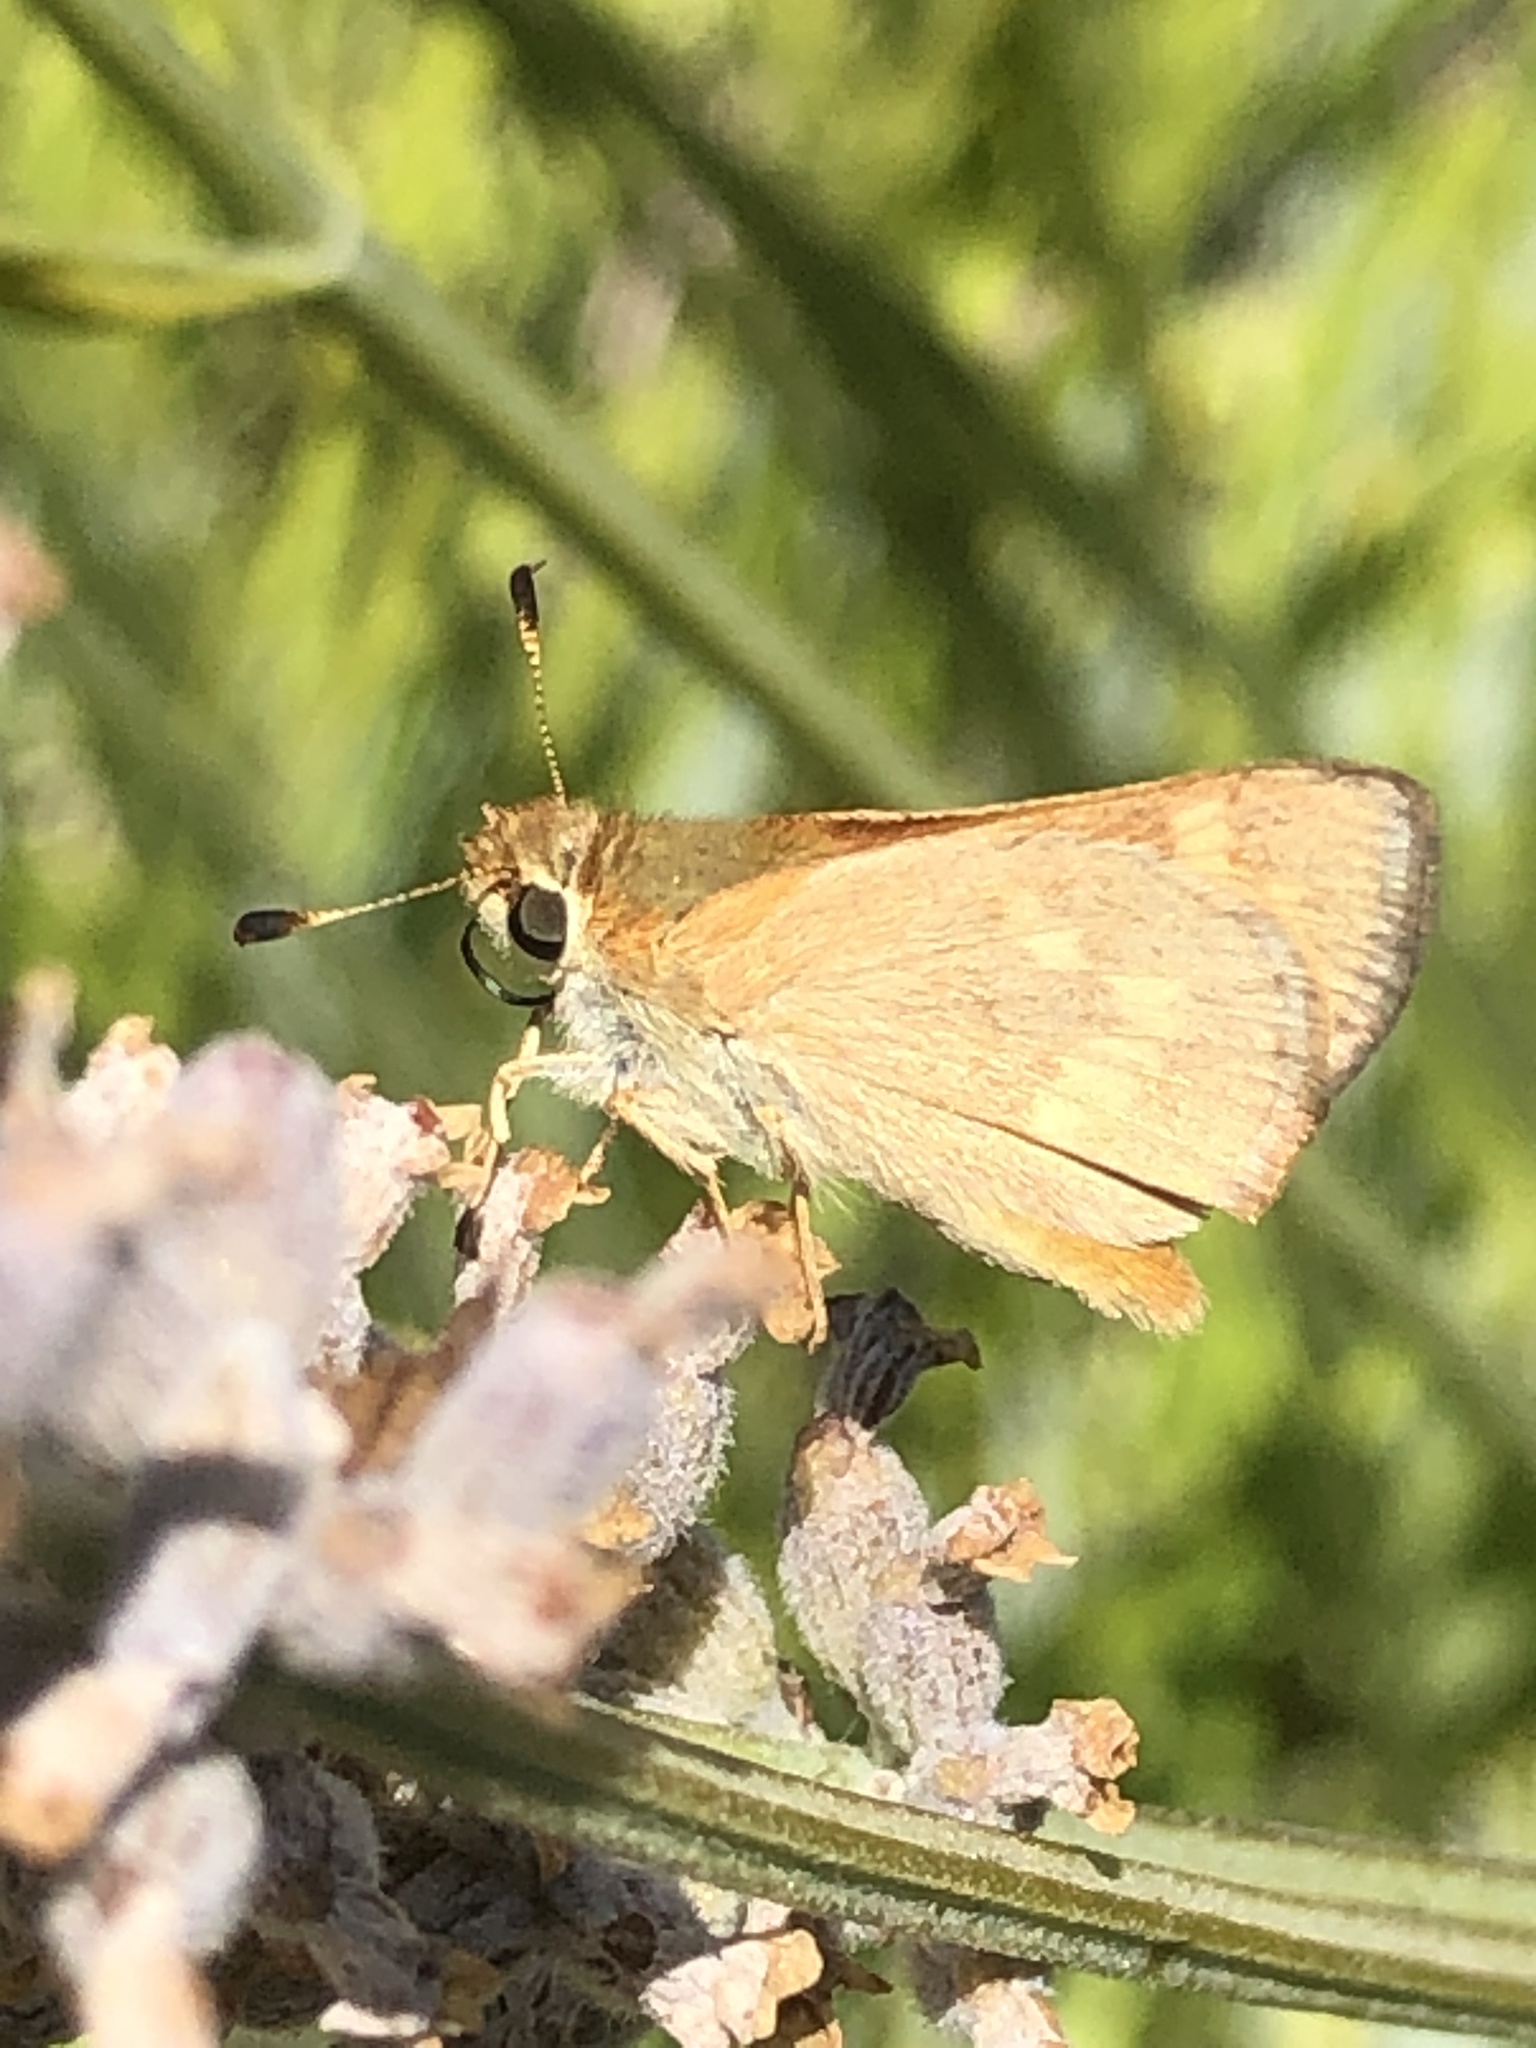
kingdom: Animalia
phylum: Arthropoda
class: Insecta
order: Lepidoptera
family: Hesperiidae
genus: Ochlodes
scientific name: Ochlodes sylvanoides
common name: Woodland skipper
